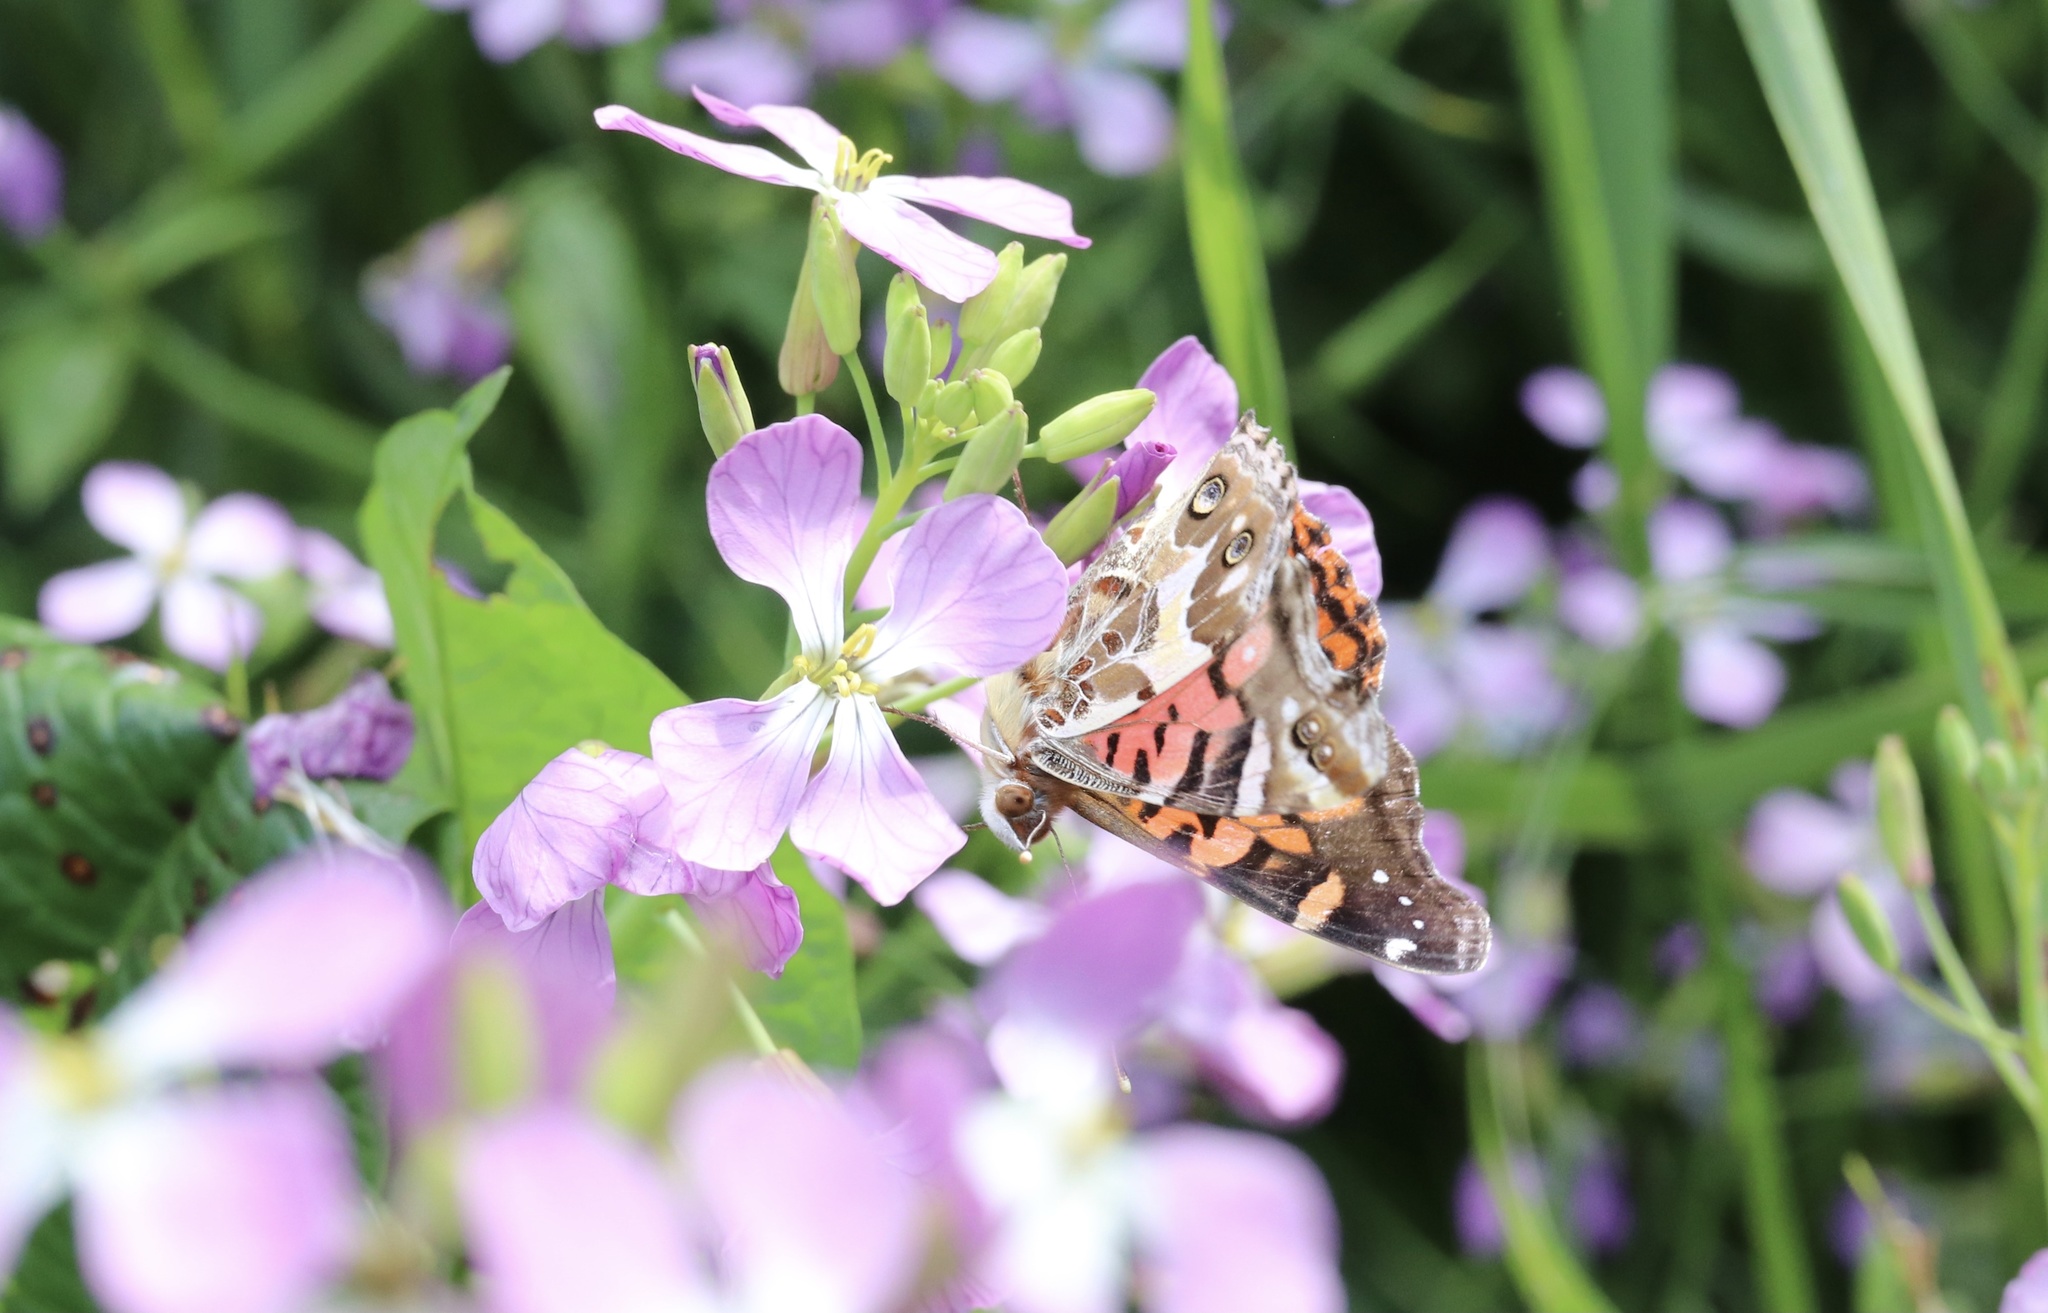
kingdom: Animalia
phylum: Arthropoda
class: Insecta
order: Lepidoptera
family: Nymphalidae
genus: Vanessa
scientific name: Vanessa terpsichore
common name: Chilean lady
